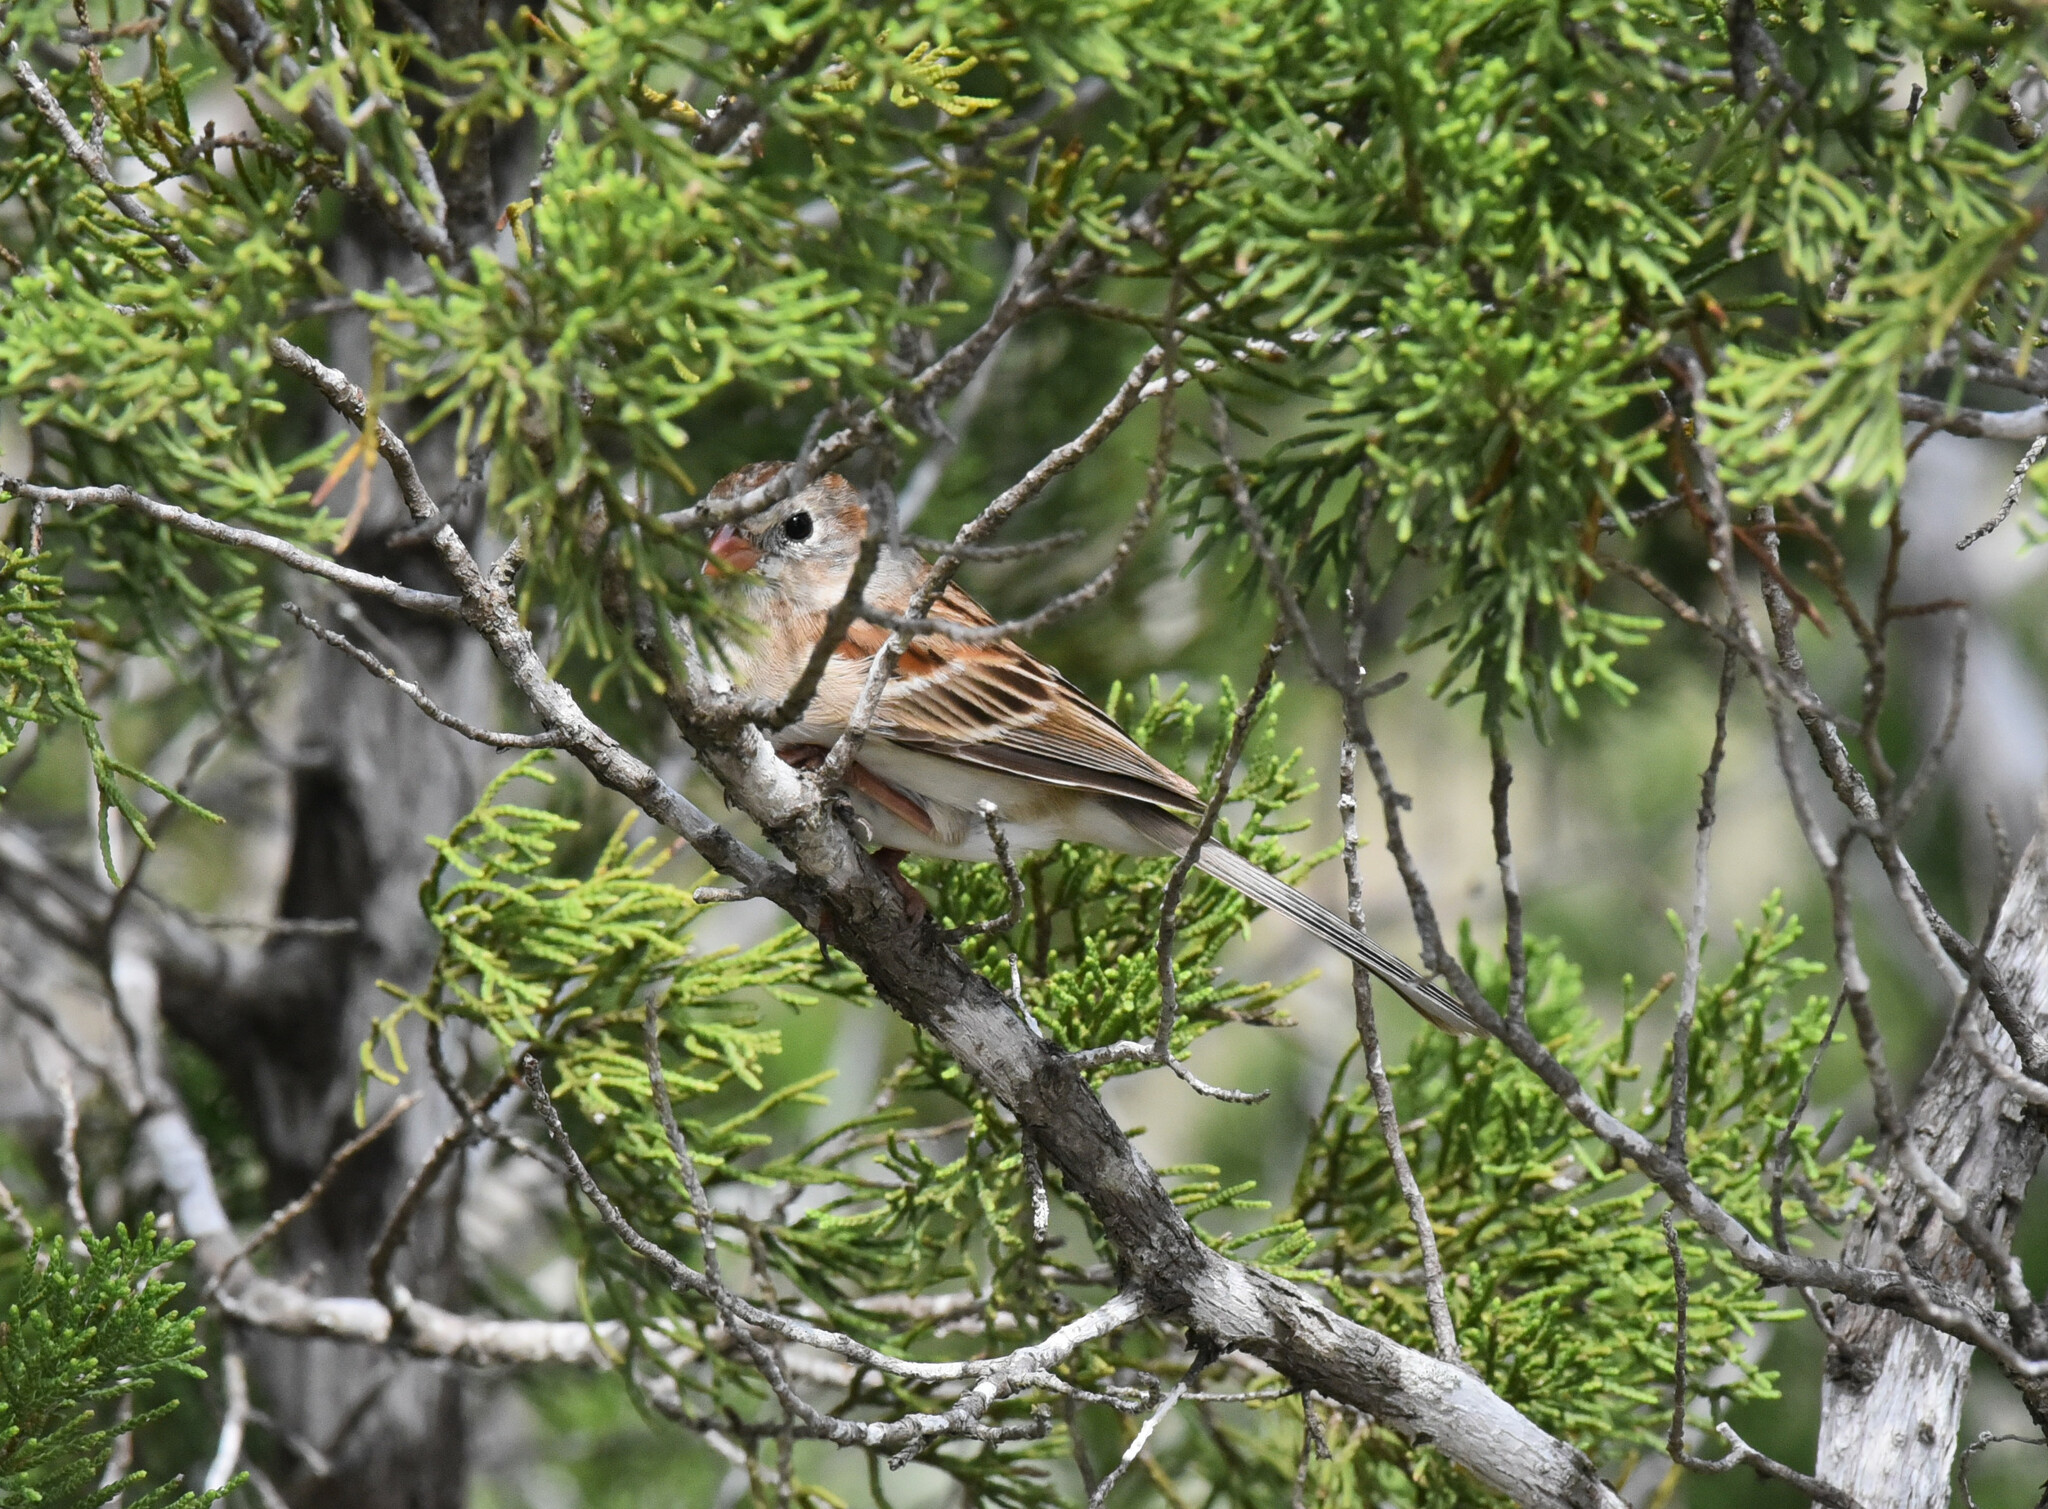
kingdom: Animalia
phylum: Chordata
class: Aves
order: Passeriformes
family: Passerellidae
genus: Spizella
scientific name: Spizella pusilla
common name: Field sparrow
